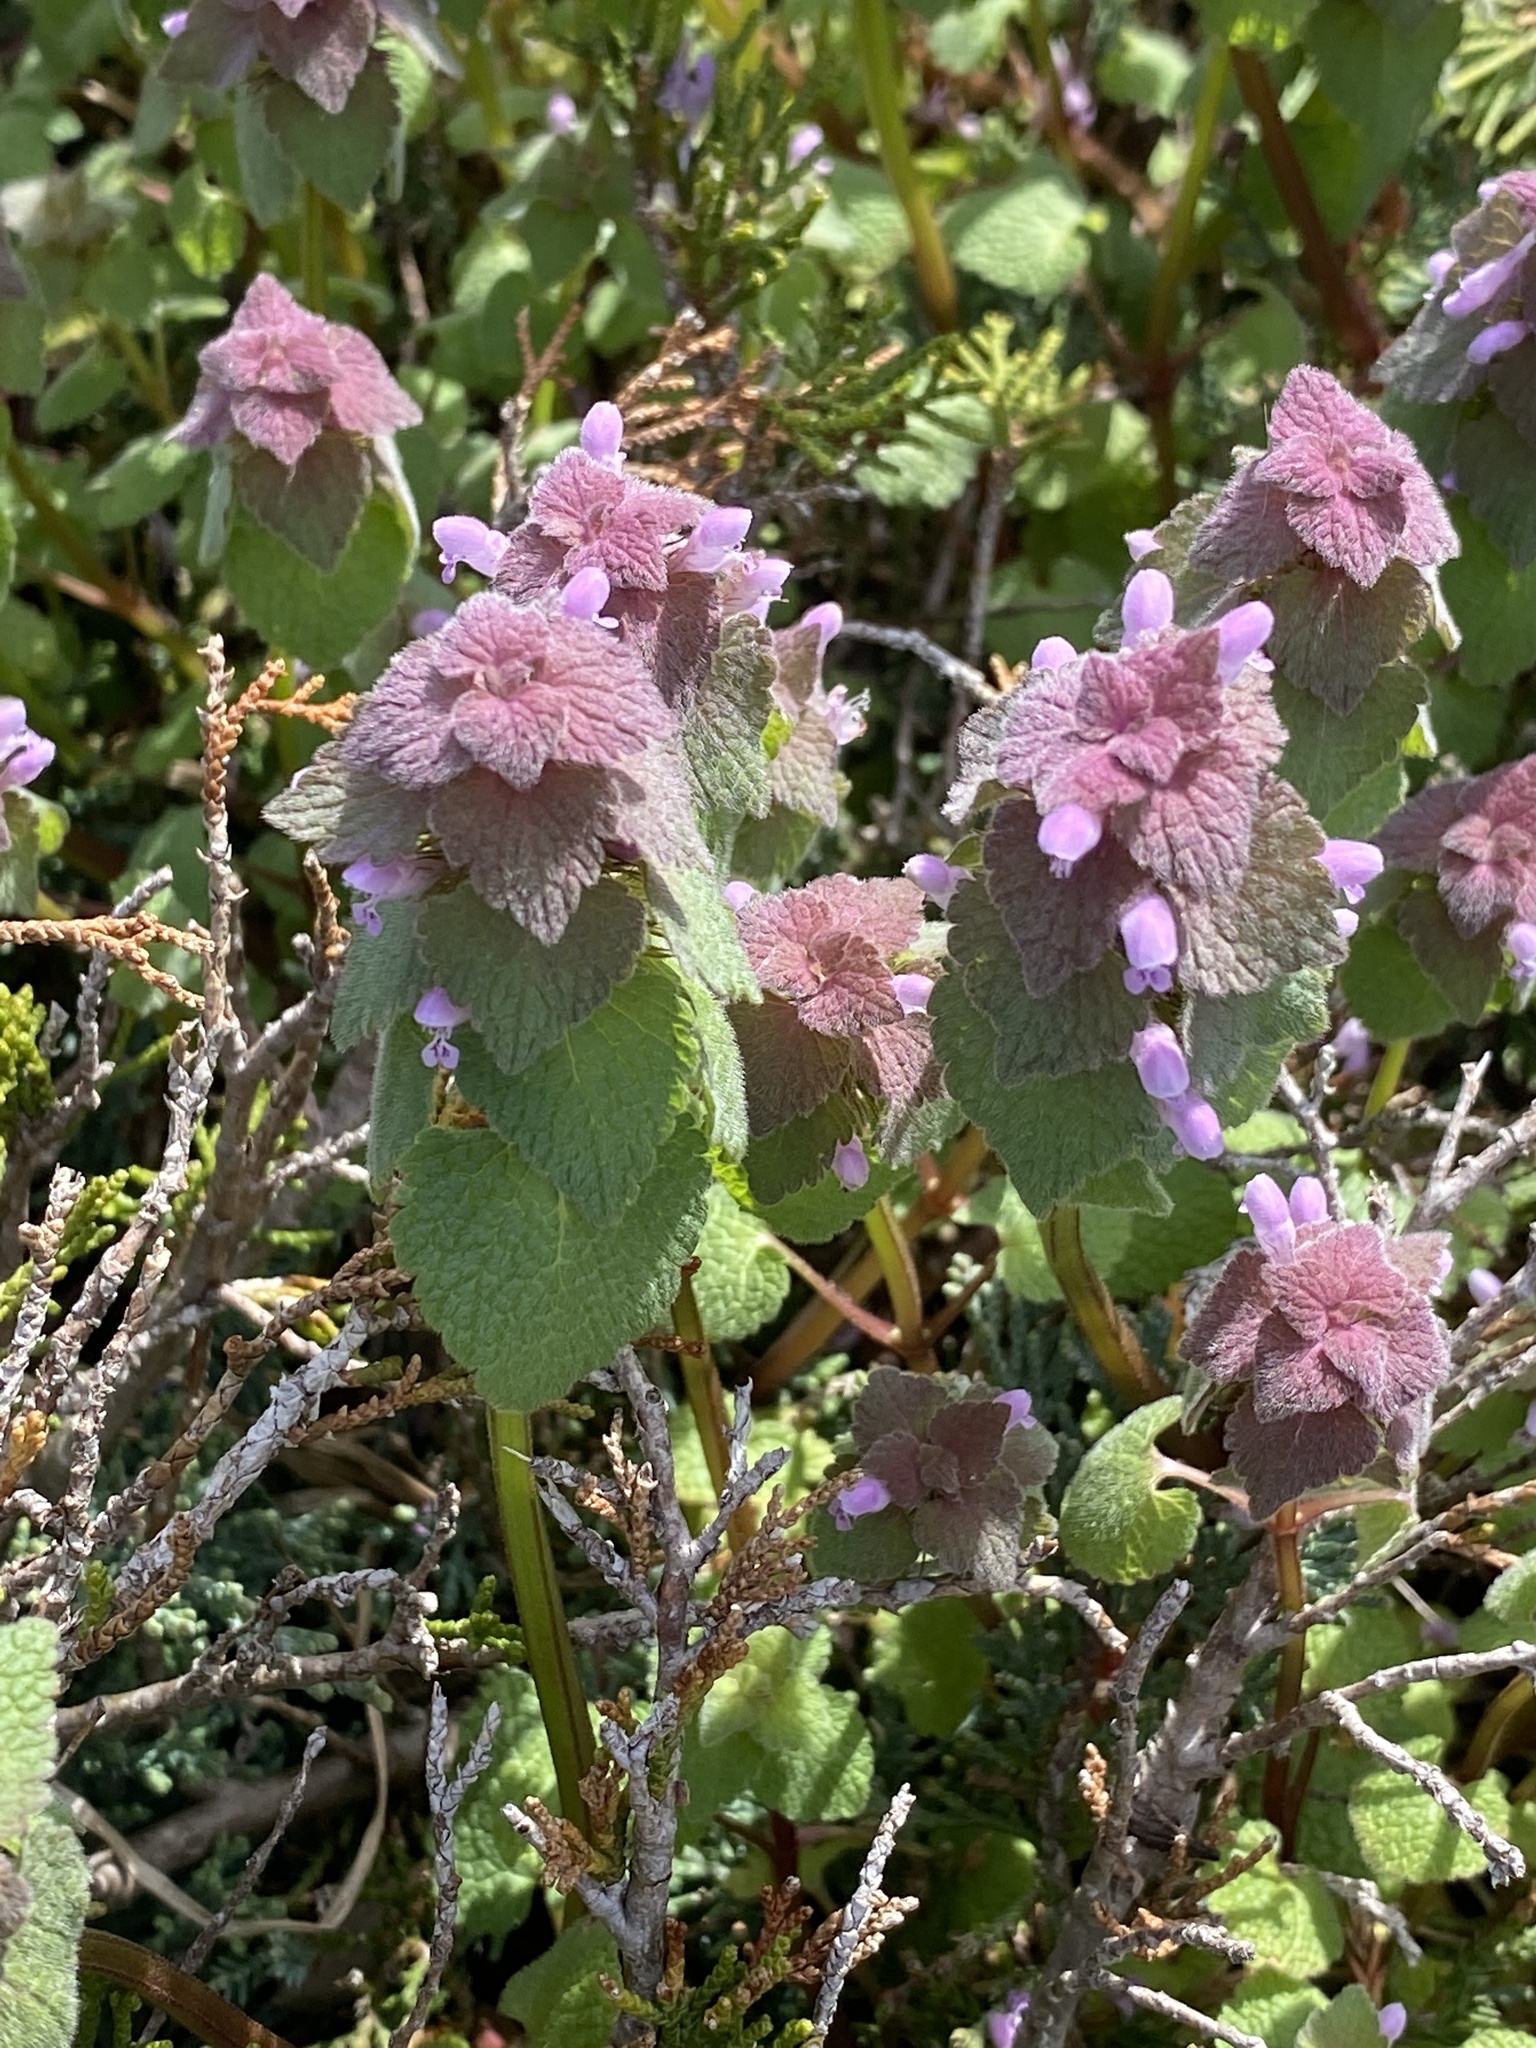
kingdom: Plantae
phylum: Tracheophyta
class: Magnoliopsida
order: Lamiales
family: Lamiaceae
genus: Lamium
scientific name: Lamium purpureum
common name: Red dead-nettle
